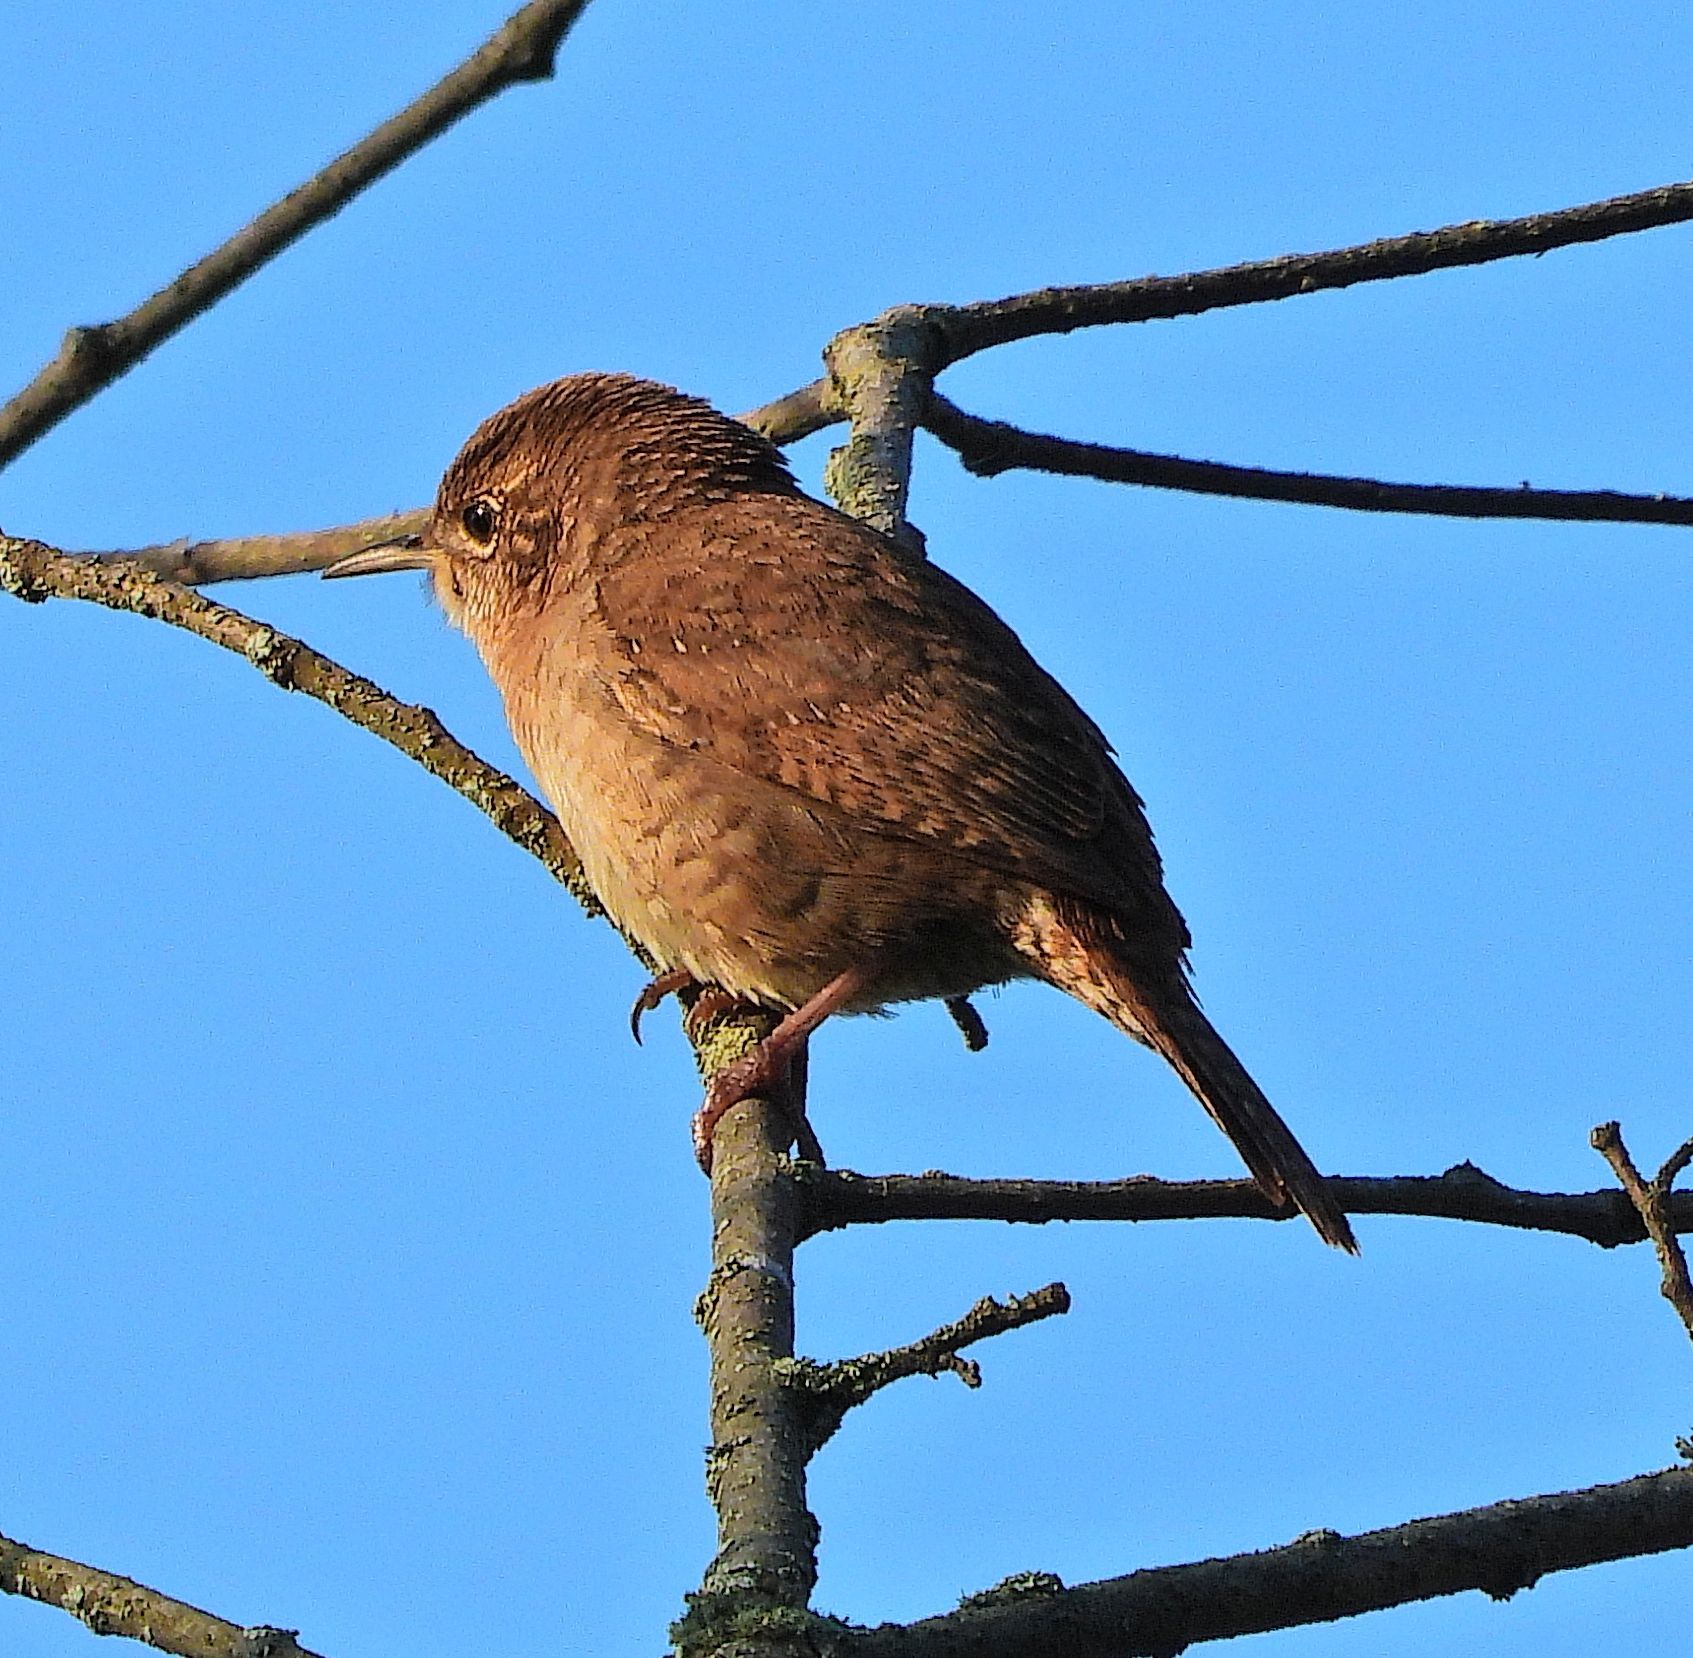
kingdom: Animalia
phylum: Chordata
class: Aves
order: Passeriformes
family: Troglodytidae
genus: Troglodytes
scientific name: Troglodytes aedon
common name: House wren
